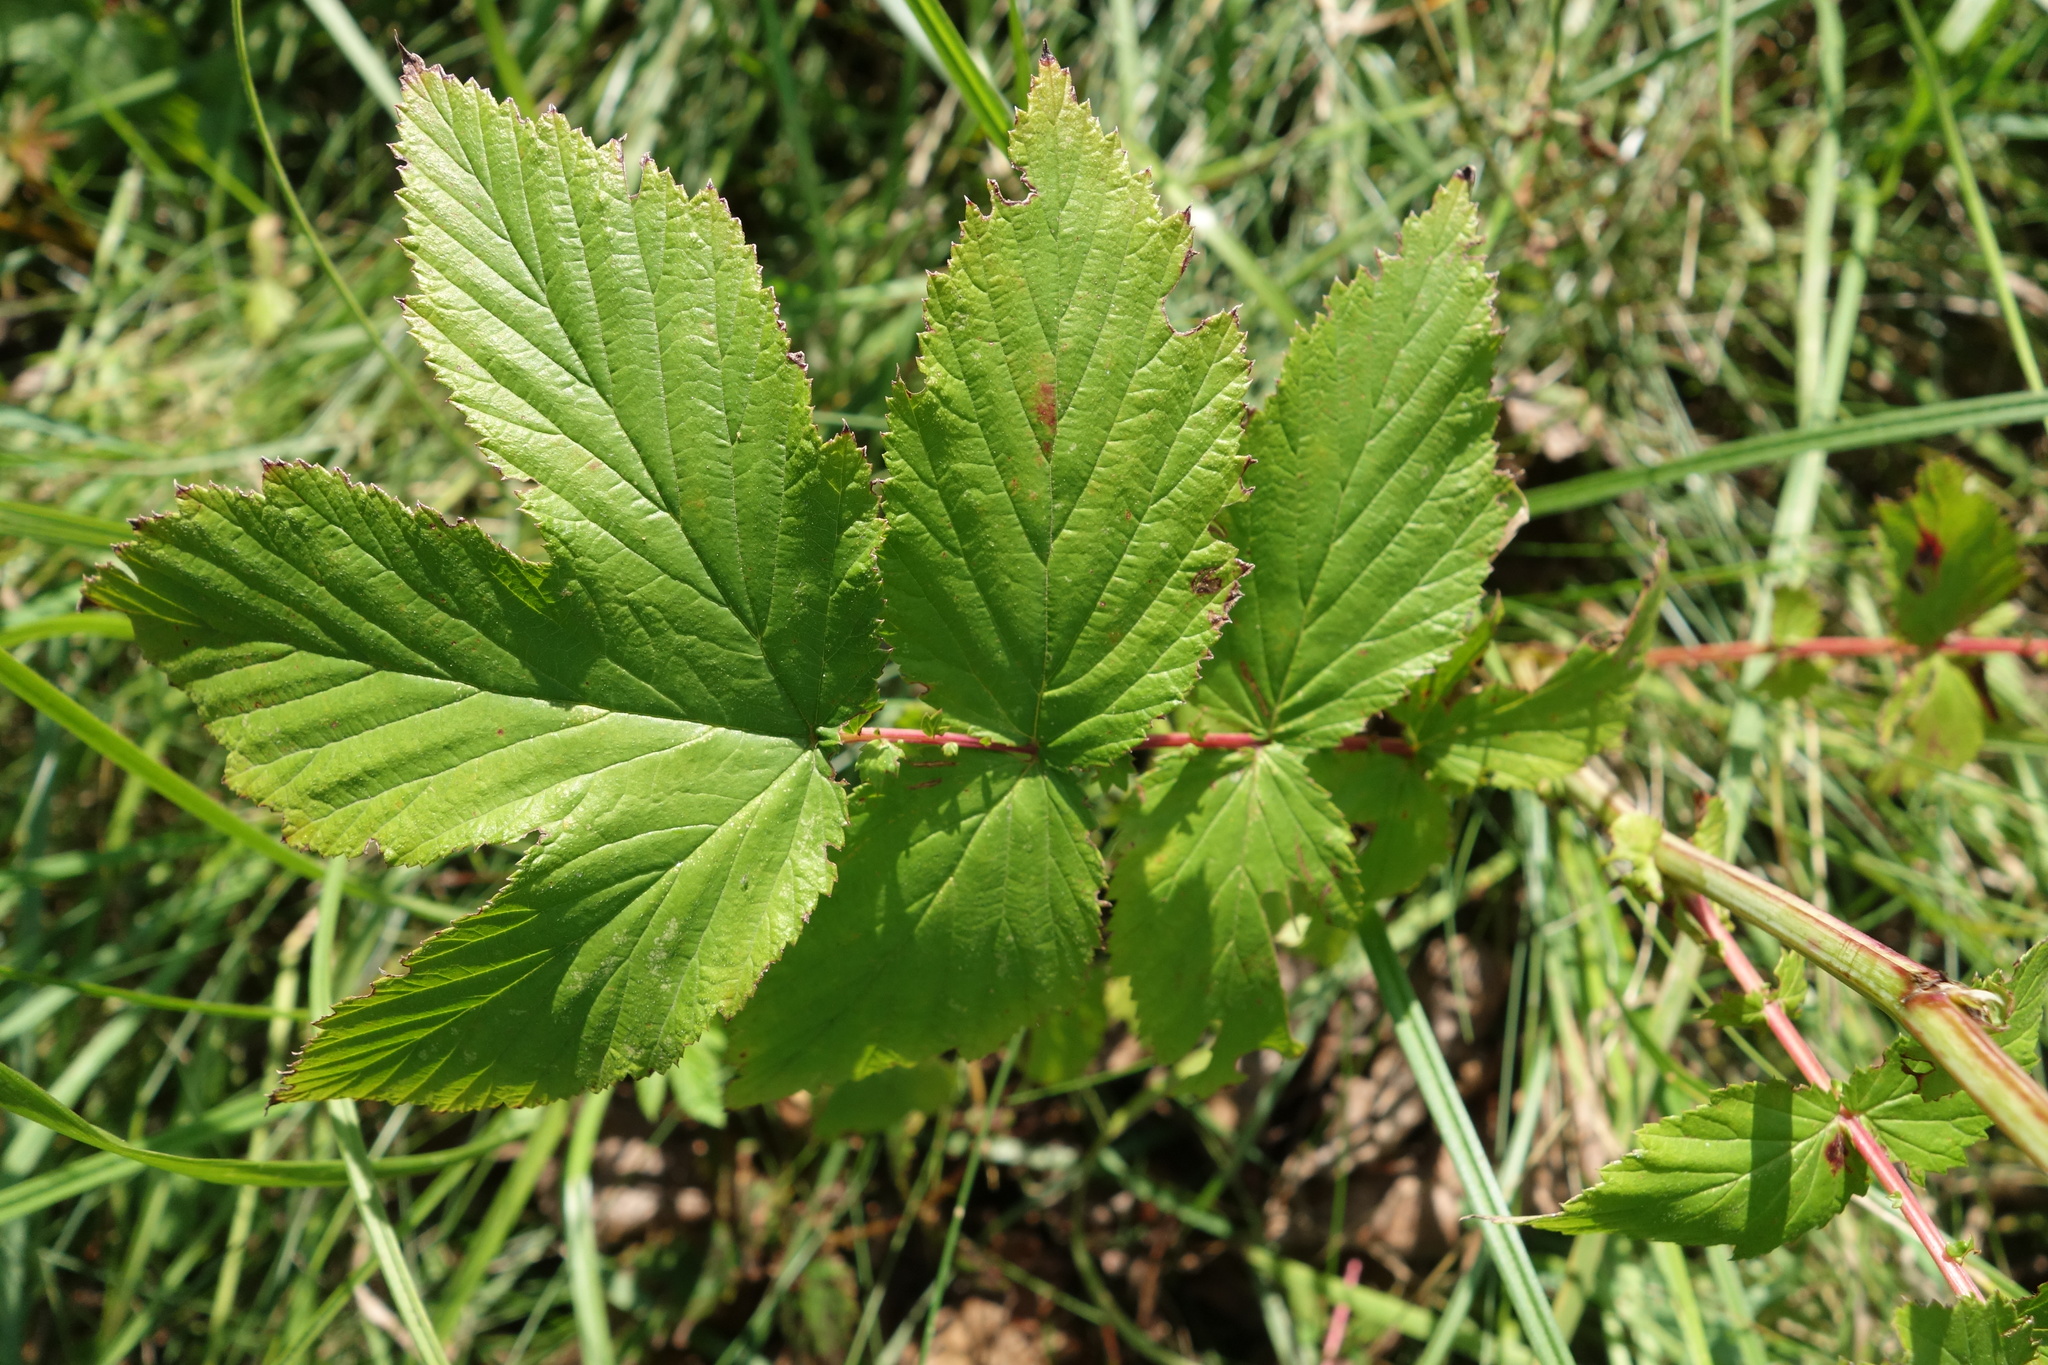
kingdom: Plantae
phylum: Tracheophyta
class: Magnoliopsida
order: Rosales
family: Rosaceae
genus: Filipendula
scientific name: Filipendula ulmaria
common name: Meadowsweet
